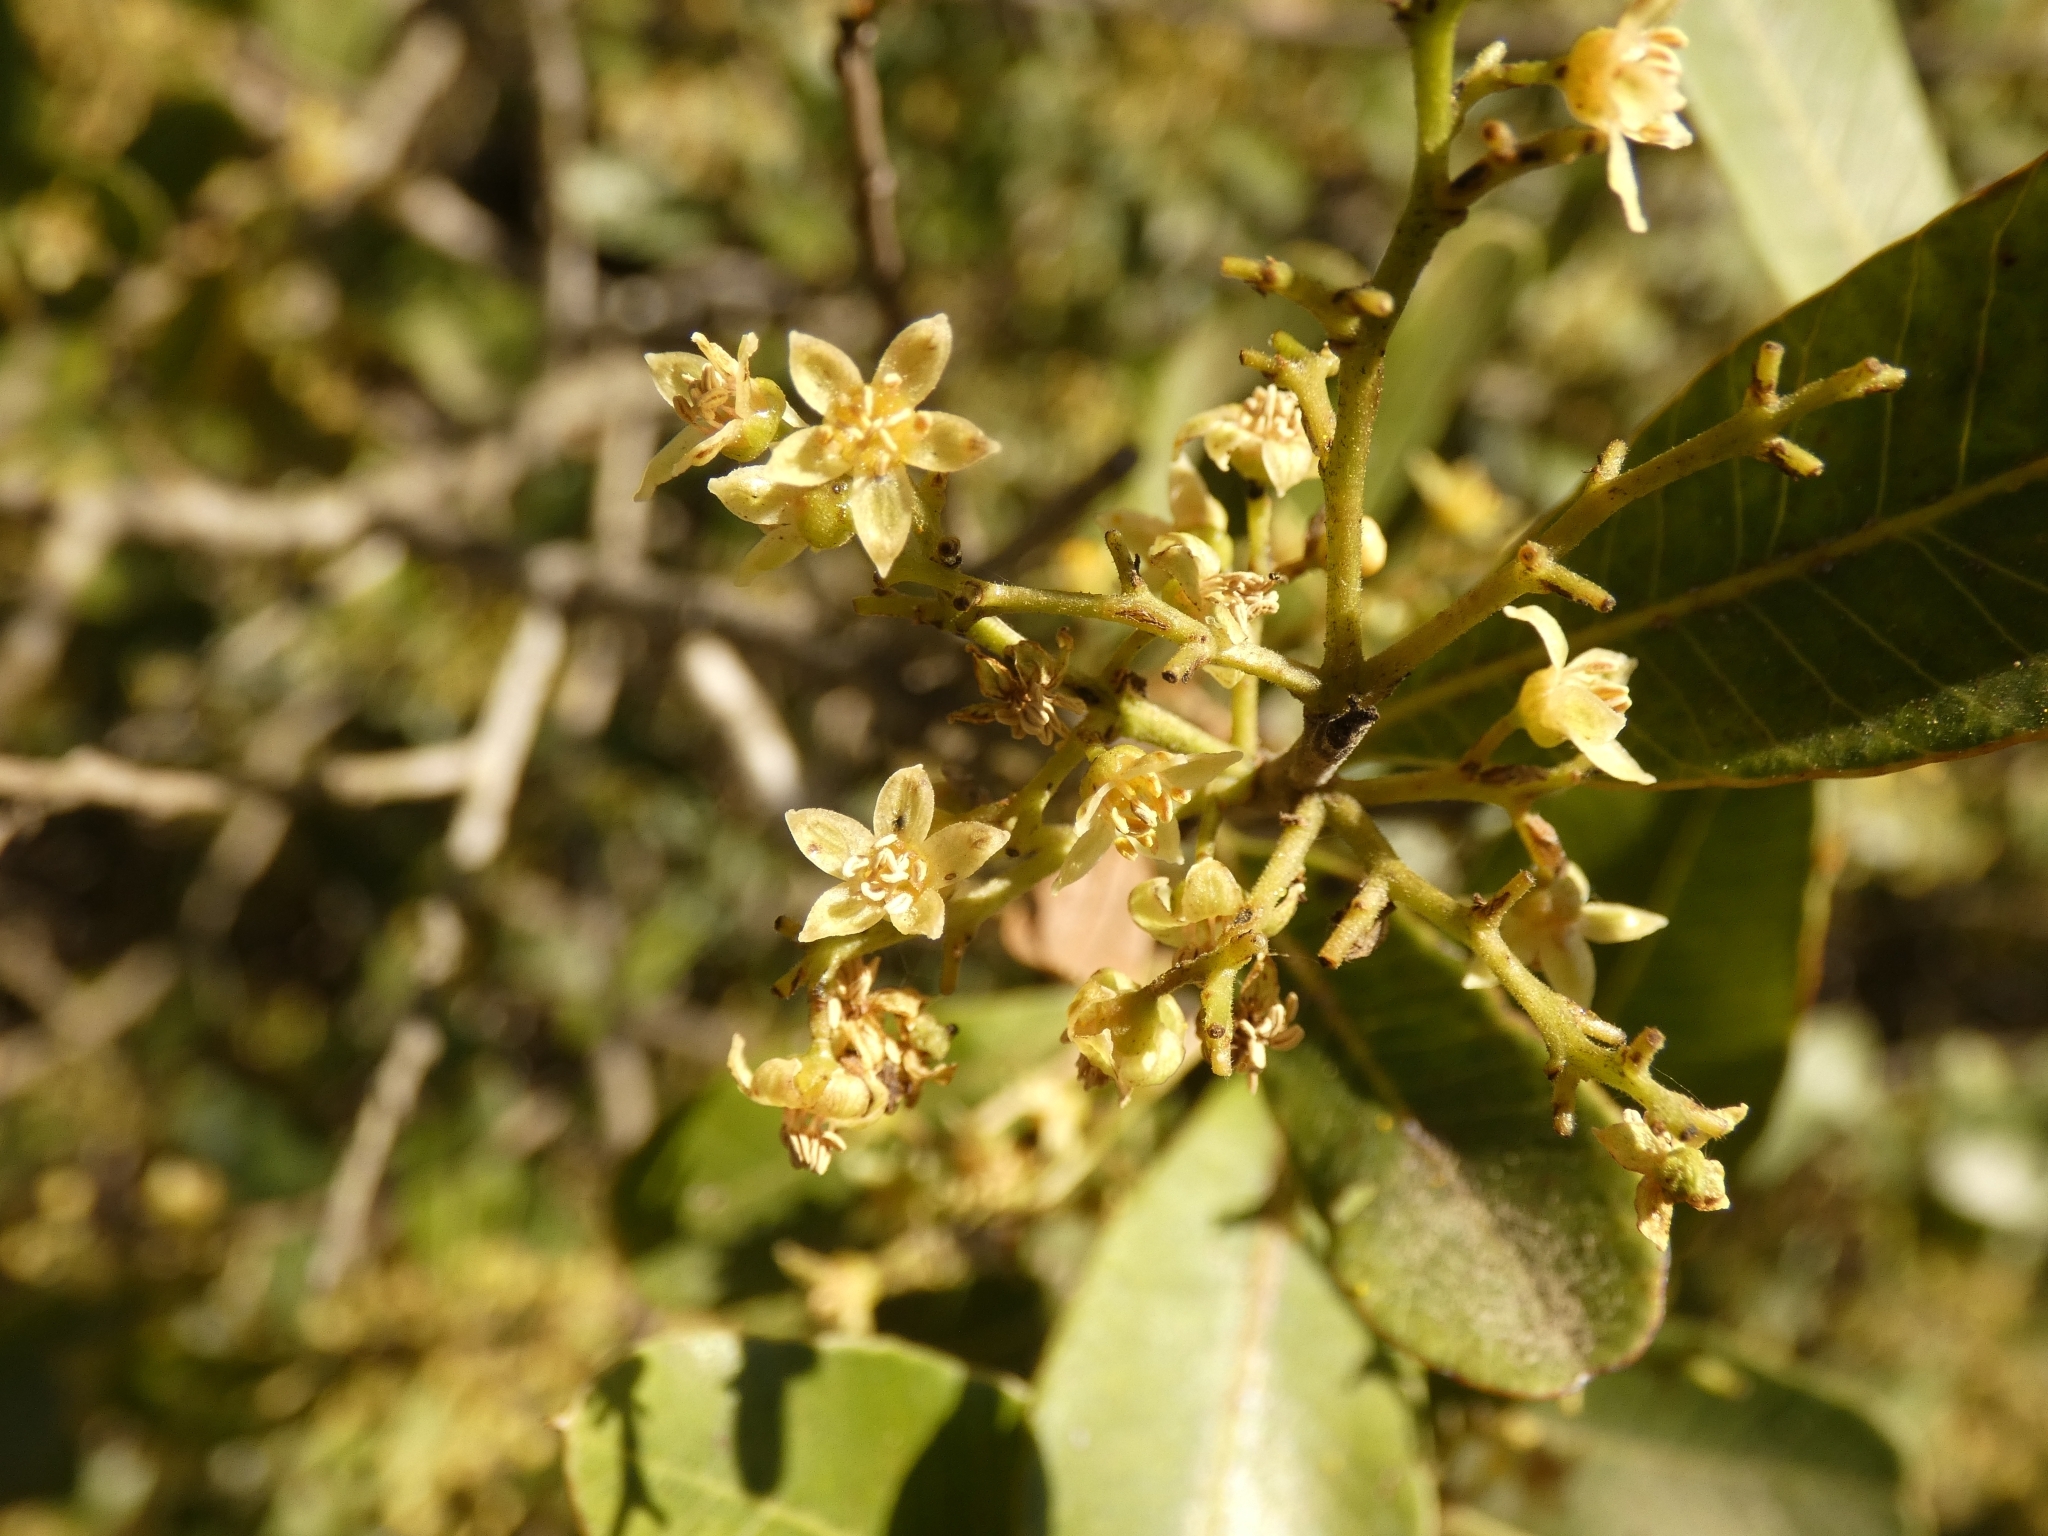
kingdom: Plantae
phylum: Tracheophyta
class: Magnoliopsida
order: Sapindales
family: Anacardiaceae
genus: Lithraea
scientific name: Lithraea brasiliensis
